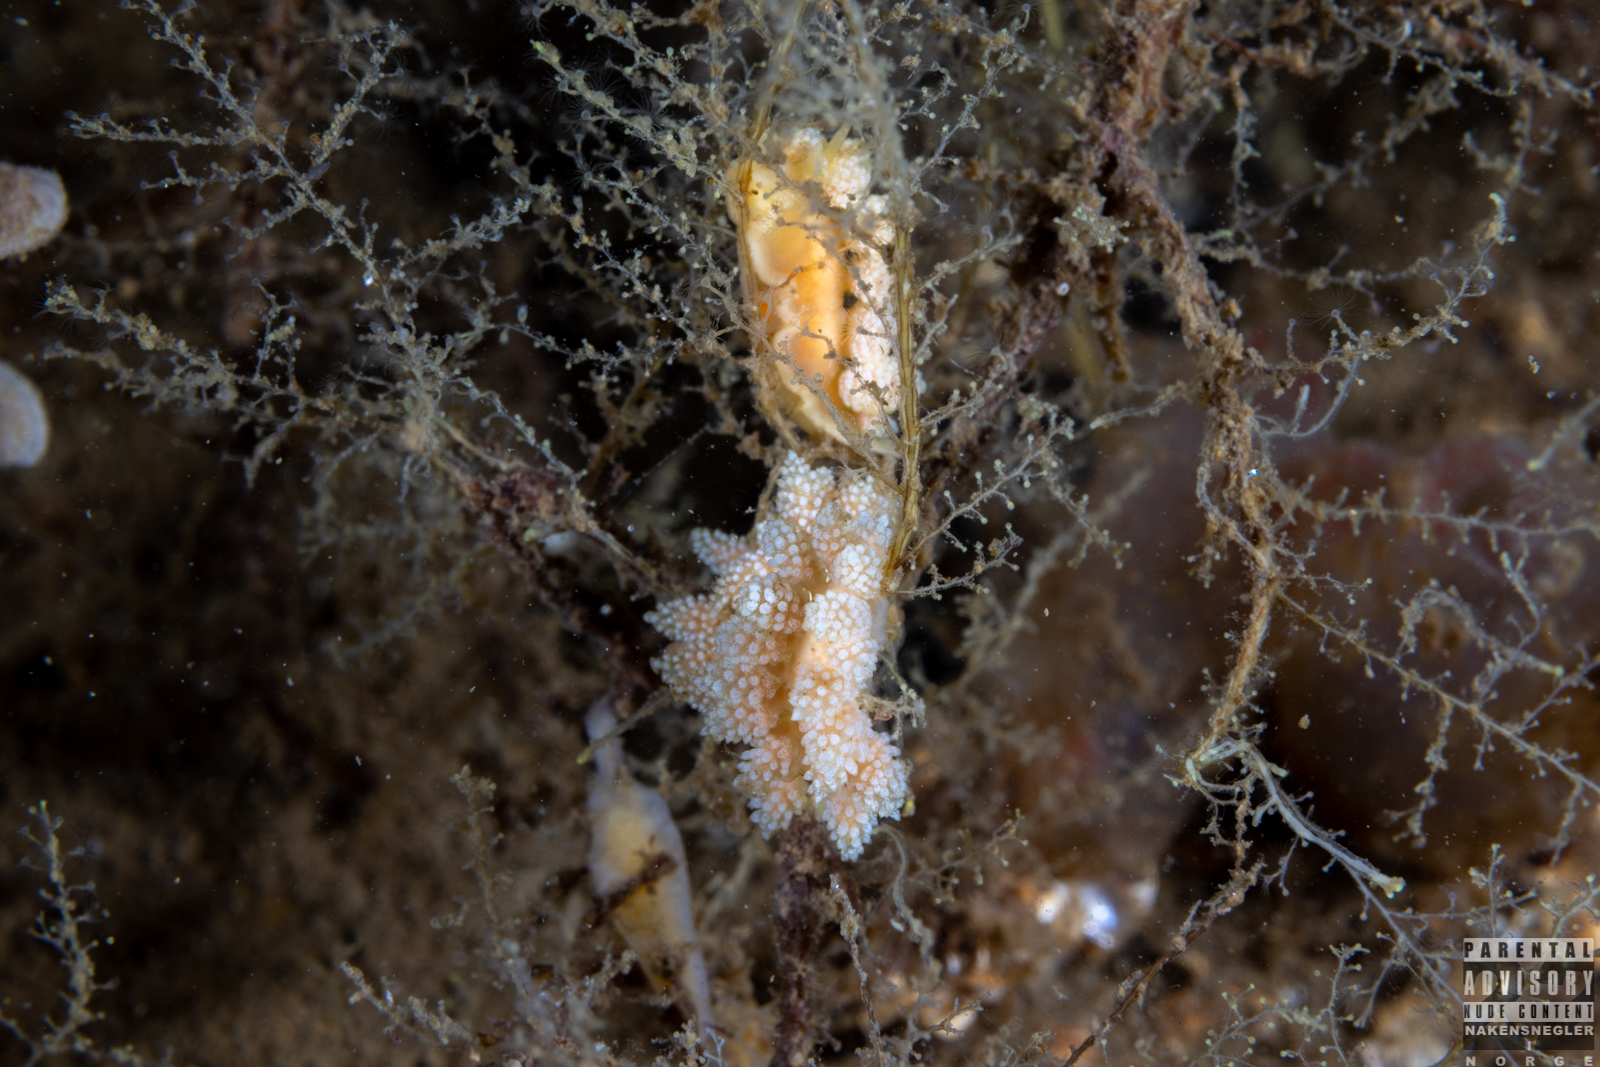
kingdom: Animalia
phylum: Mollusca
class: Gastropoda
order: Nudibranchia
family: Dotidae
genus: Doto
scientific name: Doto fragilis
